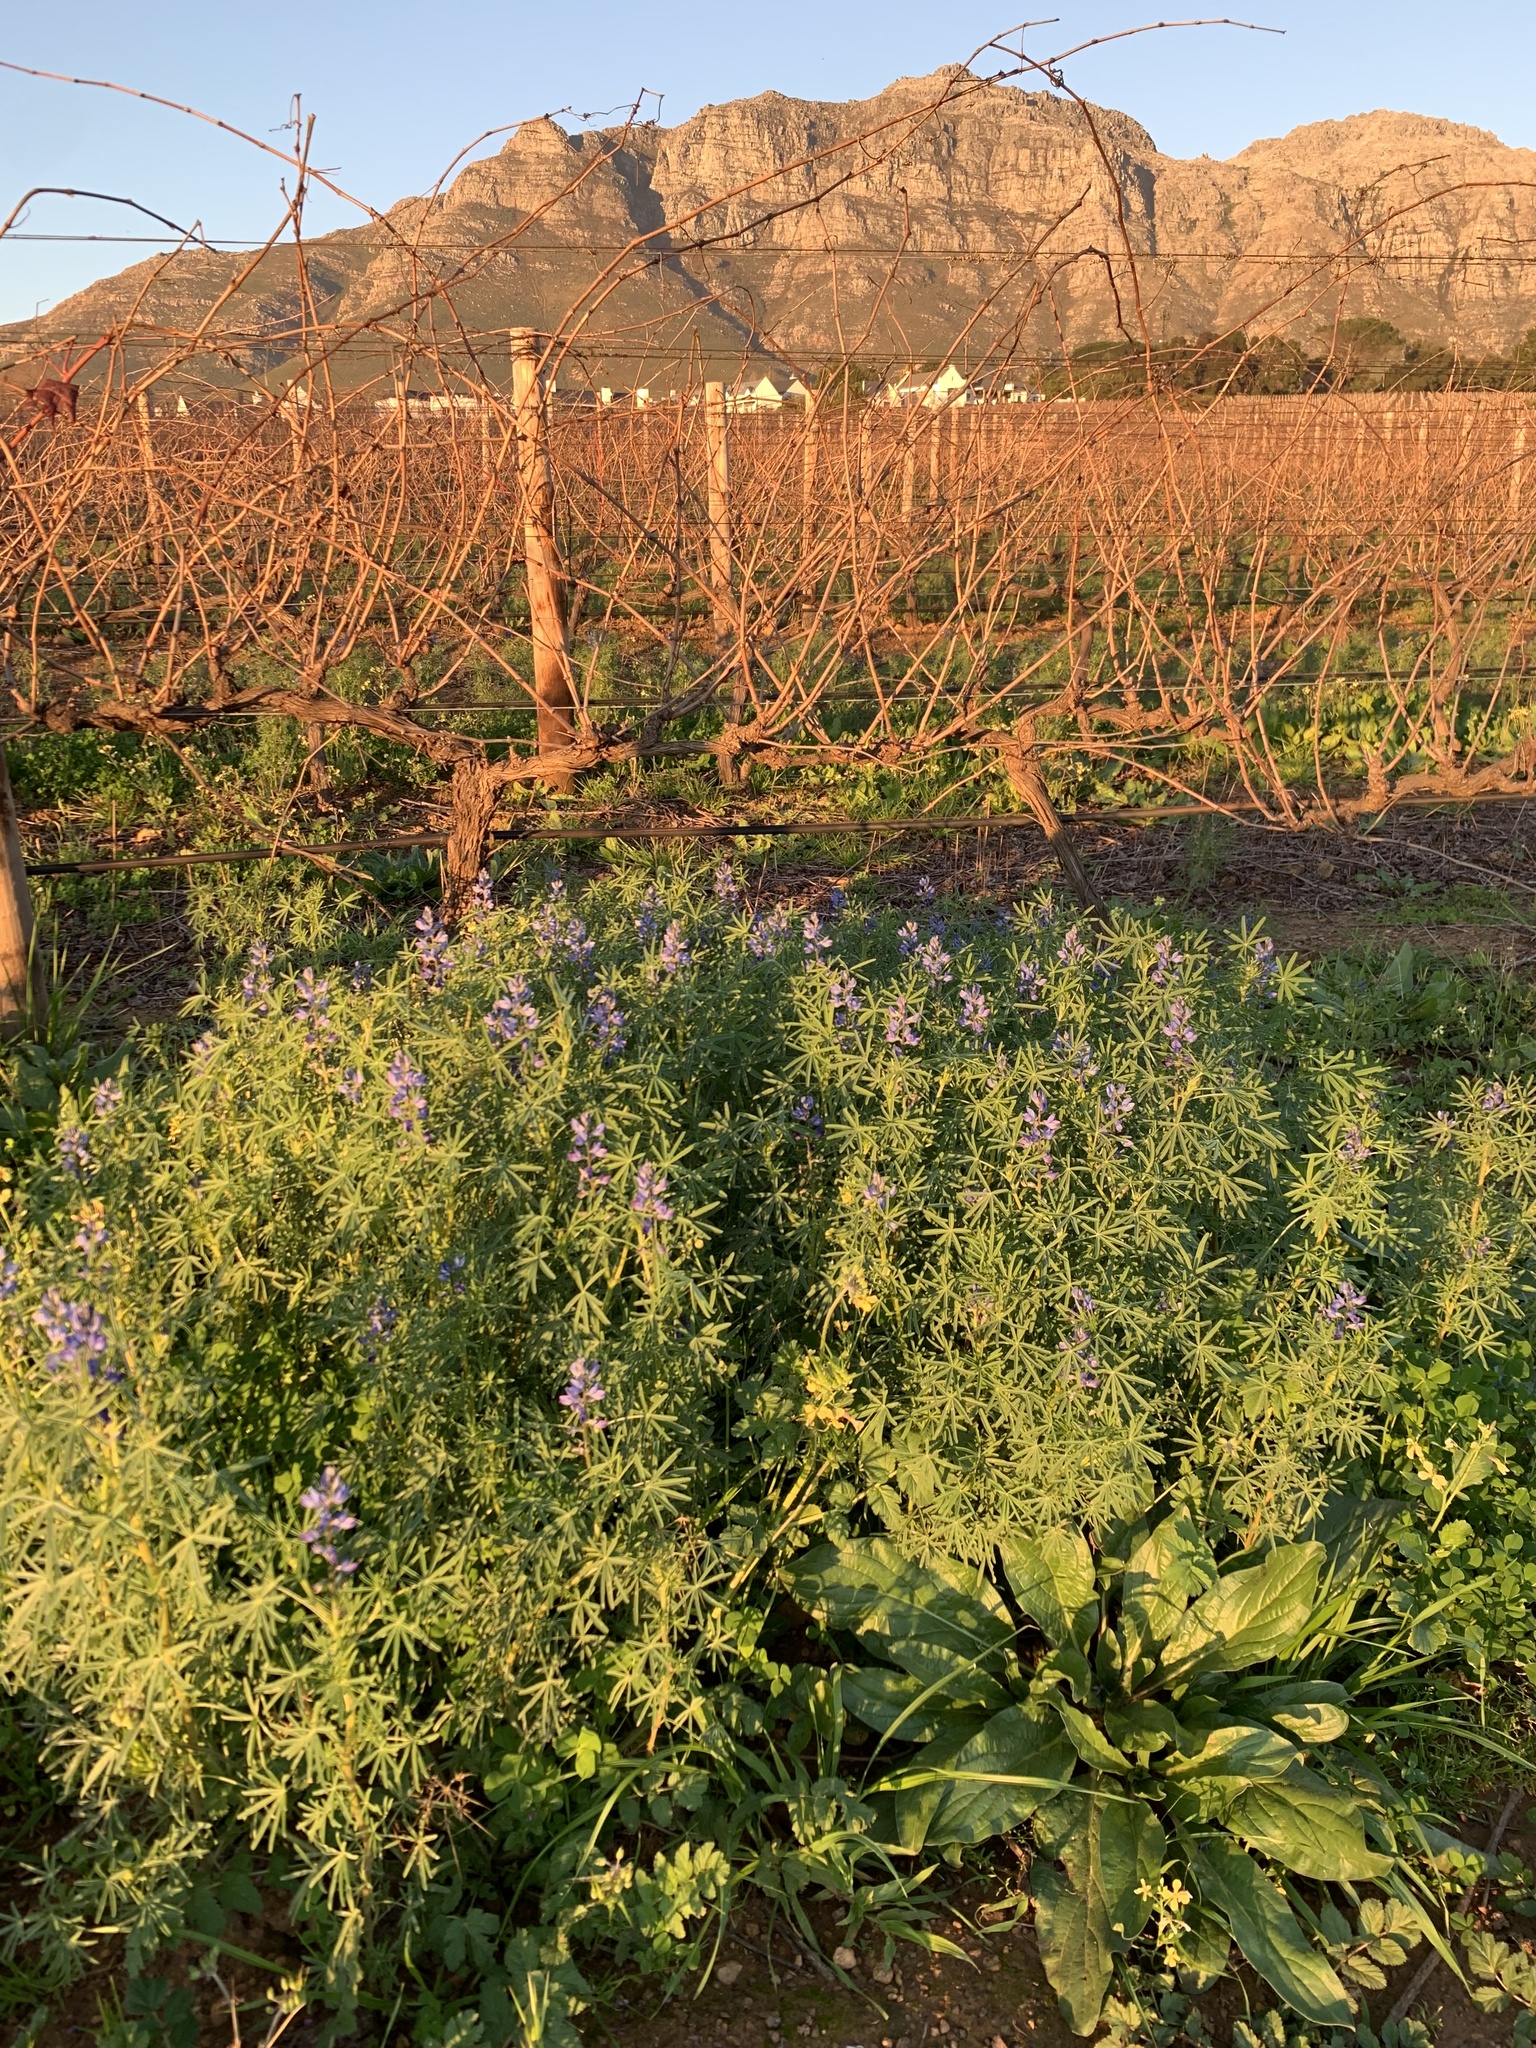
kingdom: Plantae
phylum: Tracheophyta
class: Magnoliopsida
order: Fabales
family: Fabaceae
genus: Lupinus
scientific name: Lupinus angustifolius
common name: Narrow-leaved lupin
